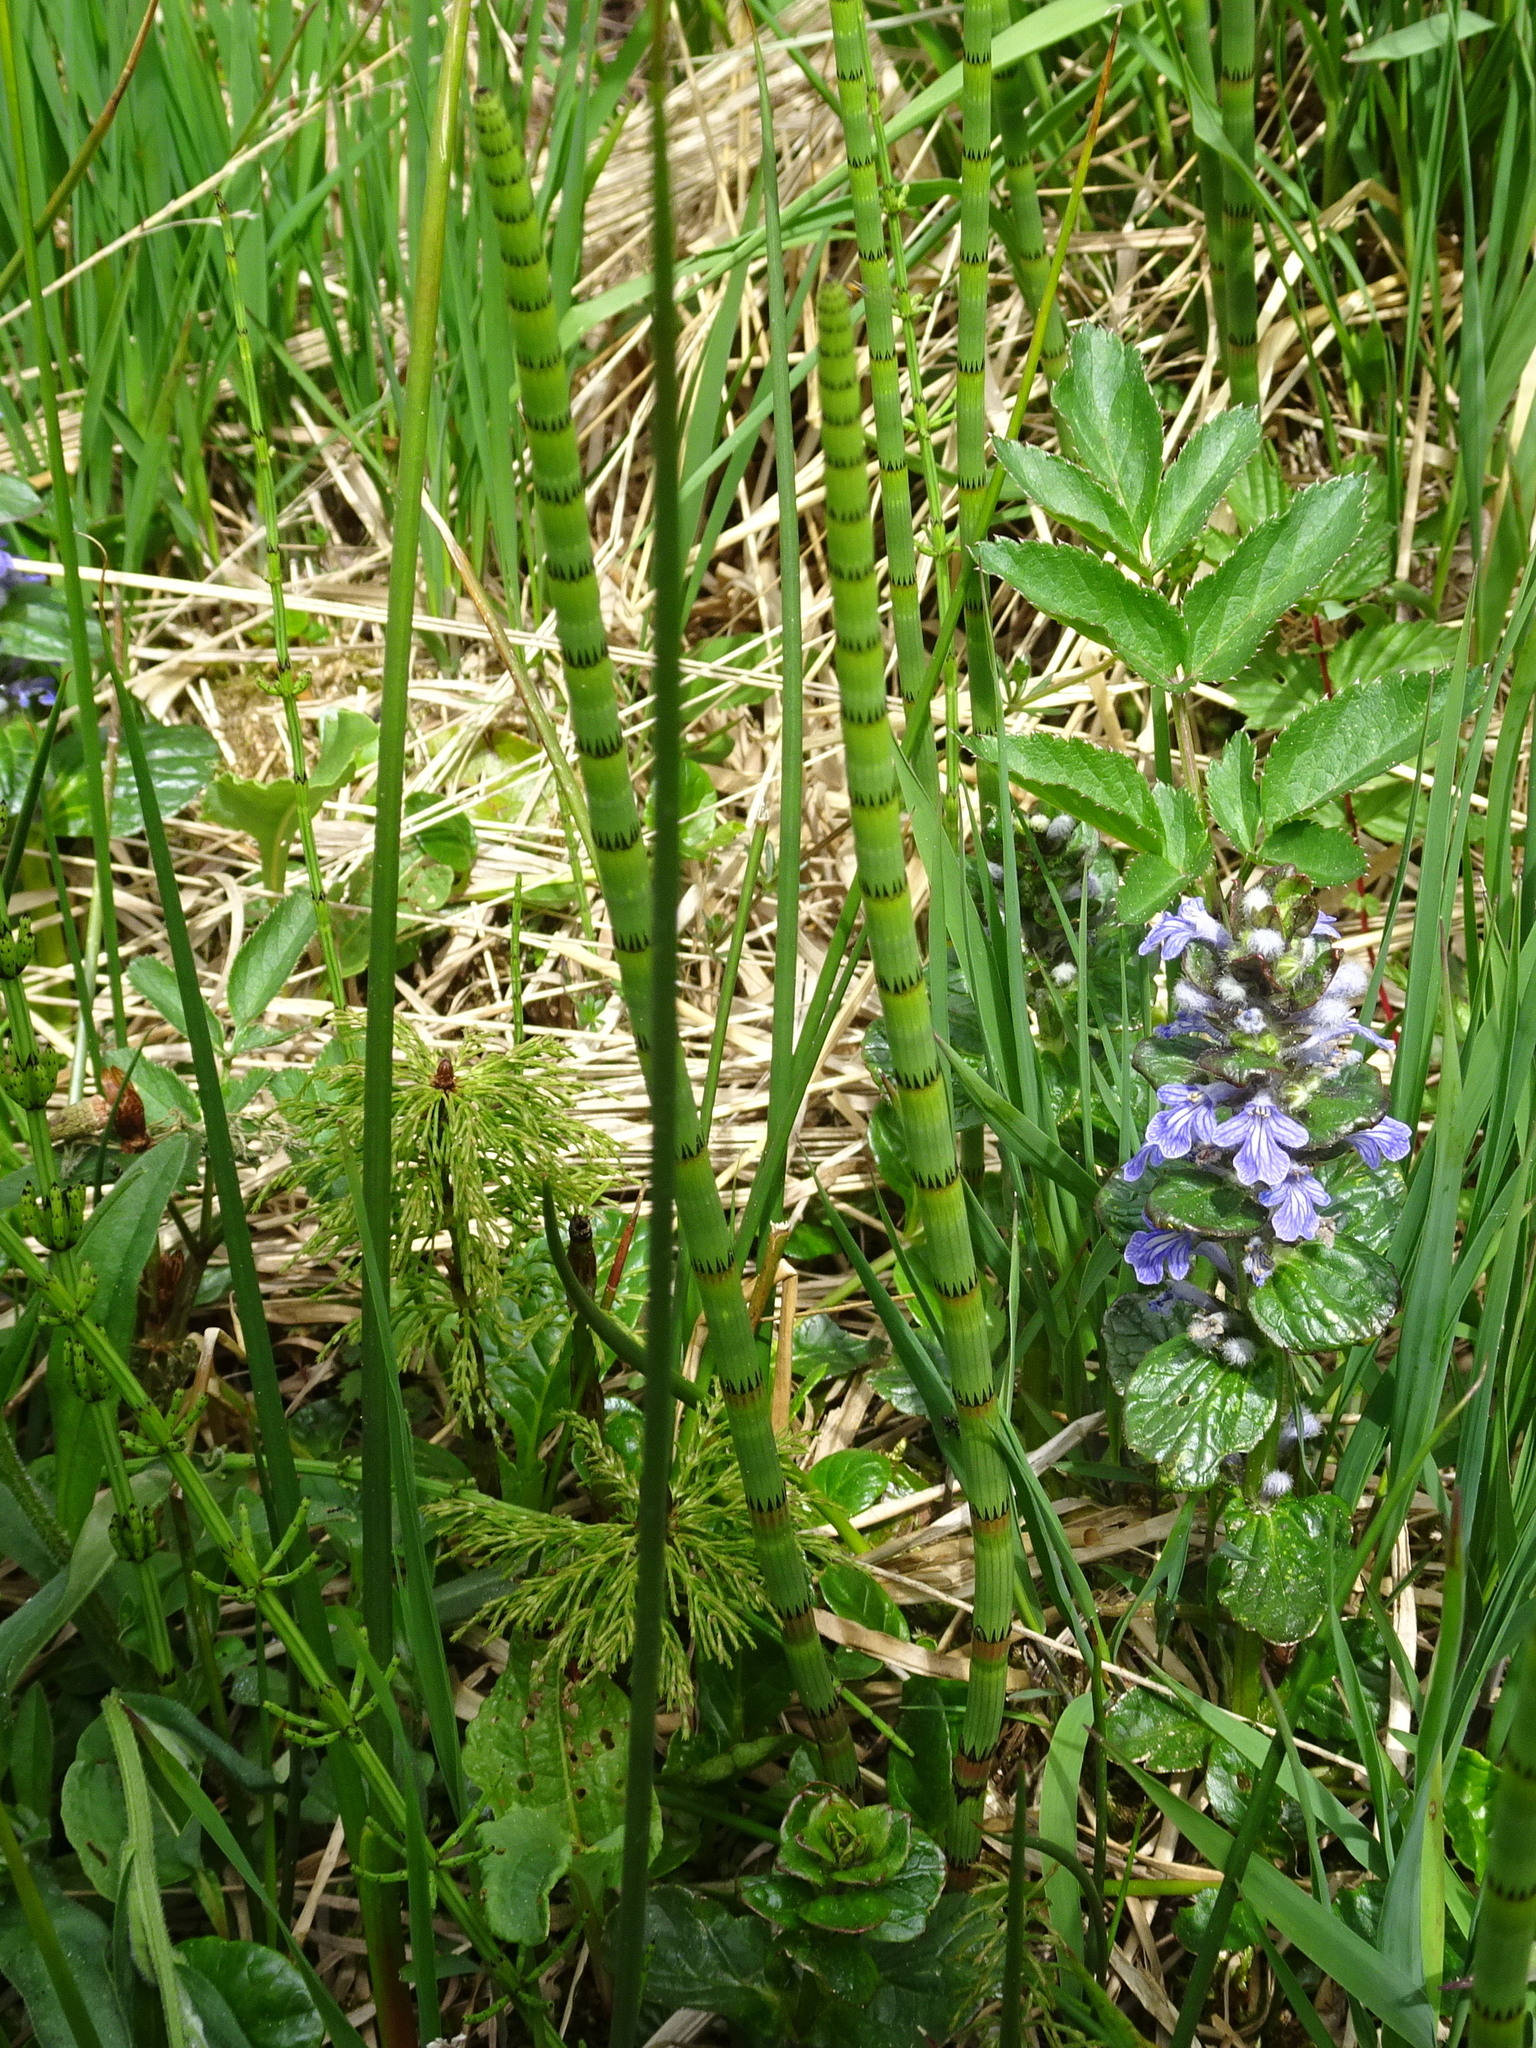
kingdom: Plantae
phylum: Tracheophyta
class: Polypodiopsida
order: Equisetales
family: Equisetaceae
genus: Equisetum
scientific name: Equisetum fluviatile
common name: Water horsetail
